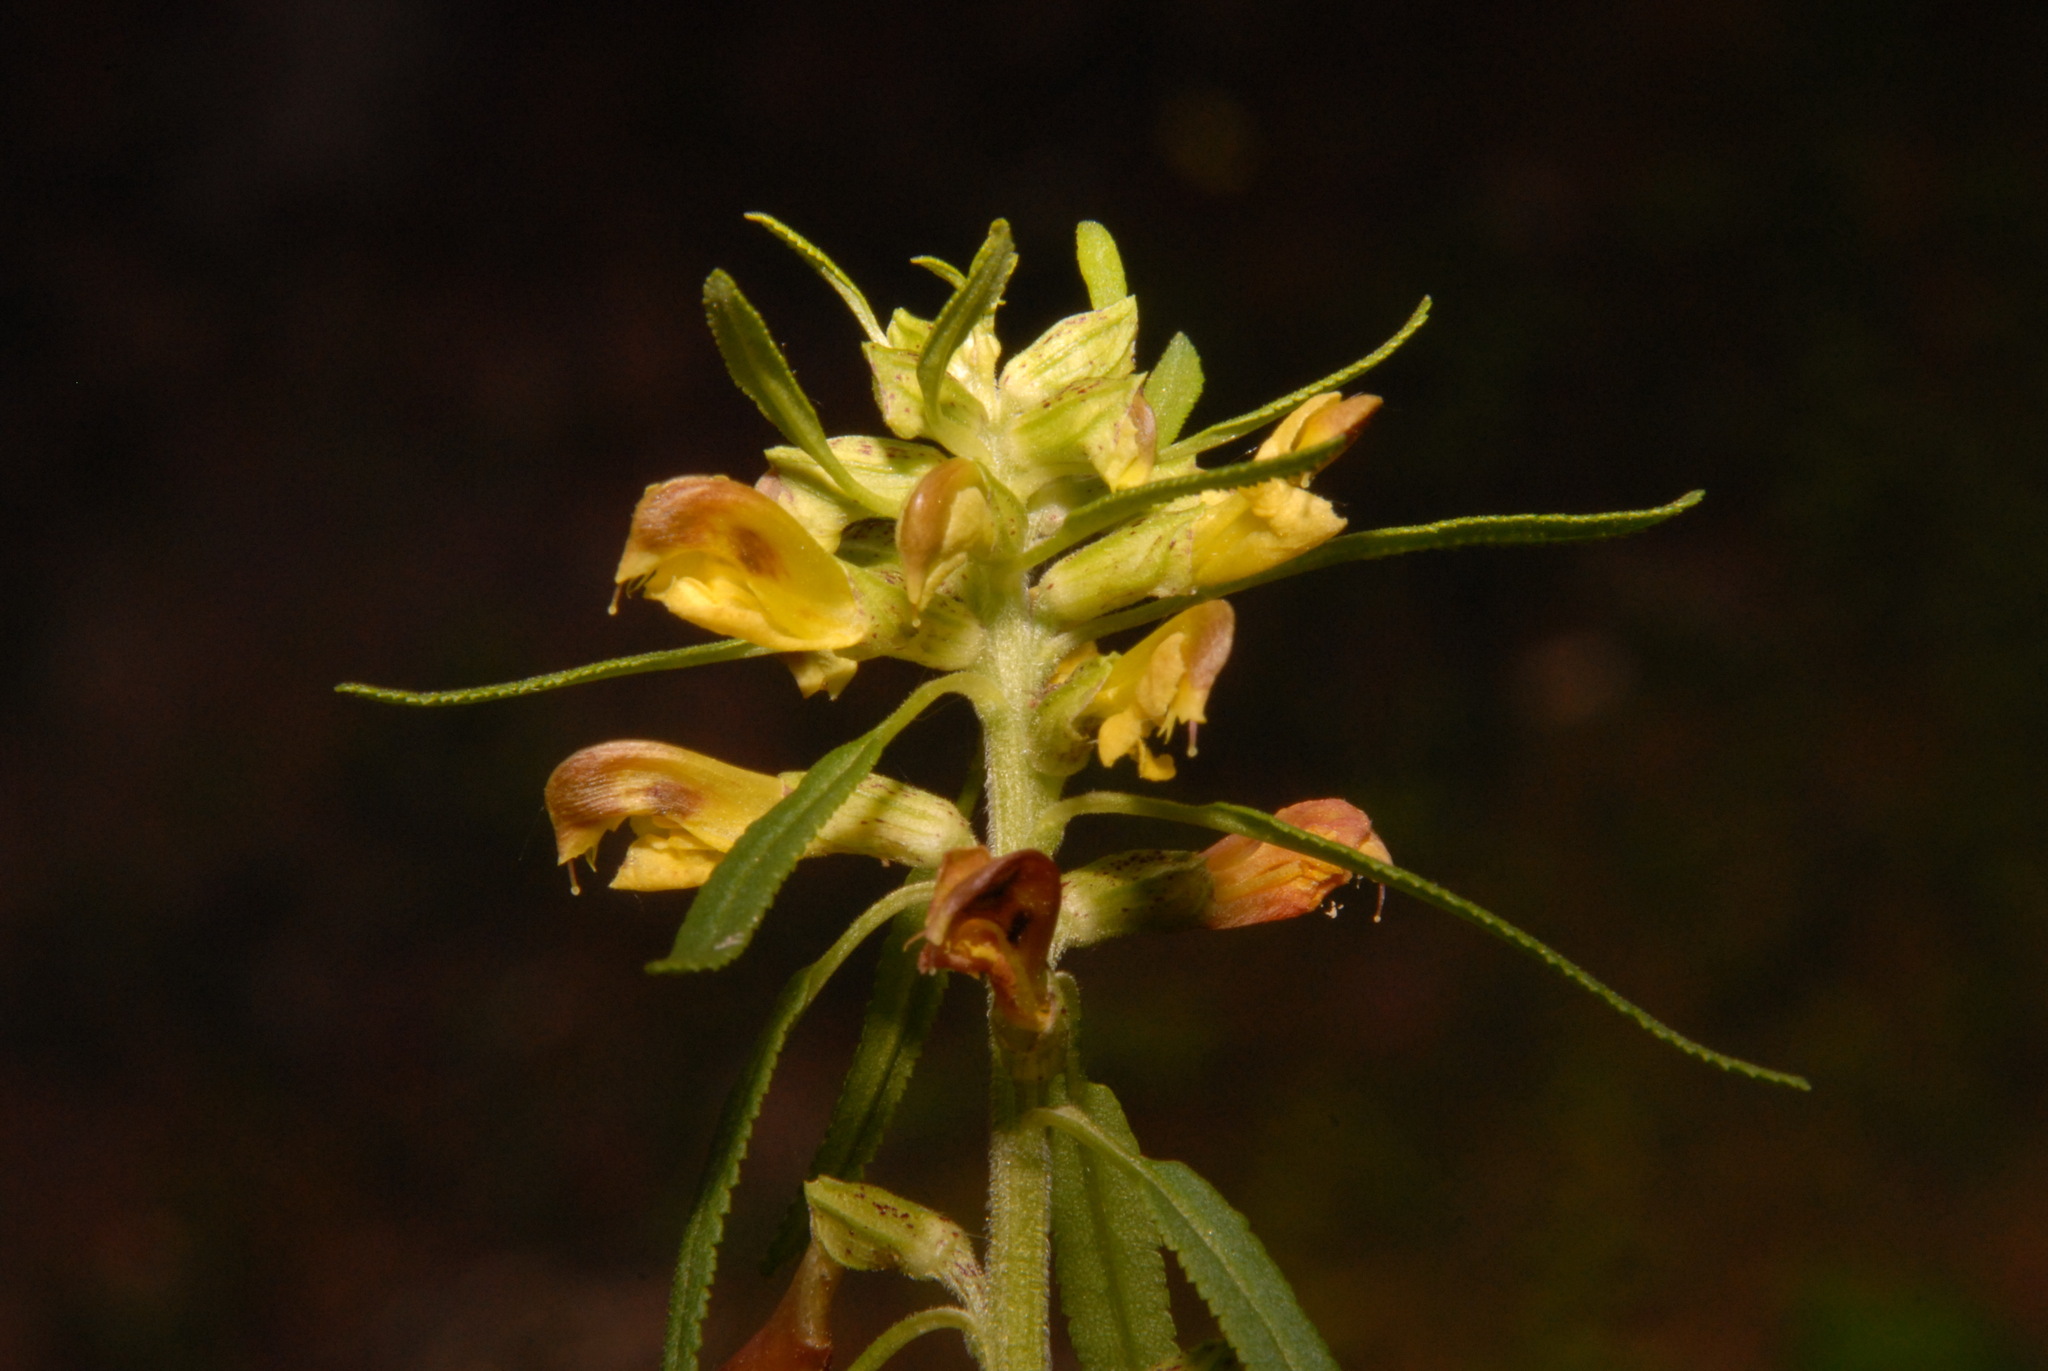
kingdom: Plantae
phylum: Tracheophyta
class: Magnoliopsida
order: Lamiales
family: Orobanchaceae
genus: Pedicularis
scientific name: Pedicularis labradorica
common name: Labrador lousewort
